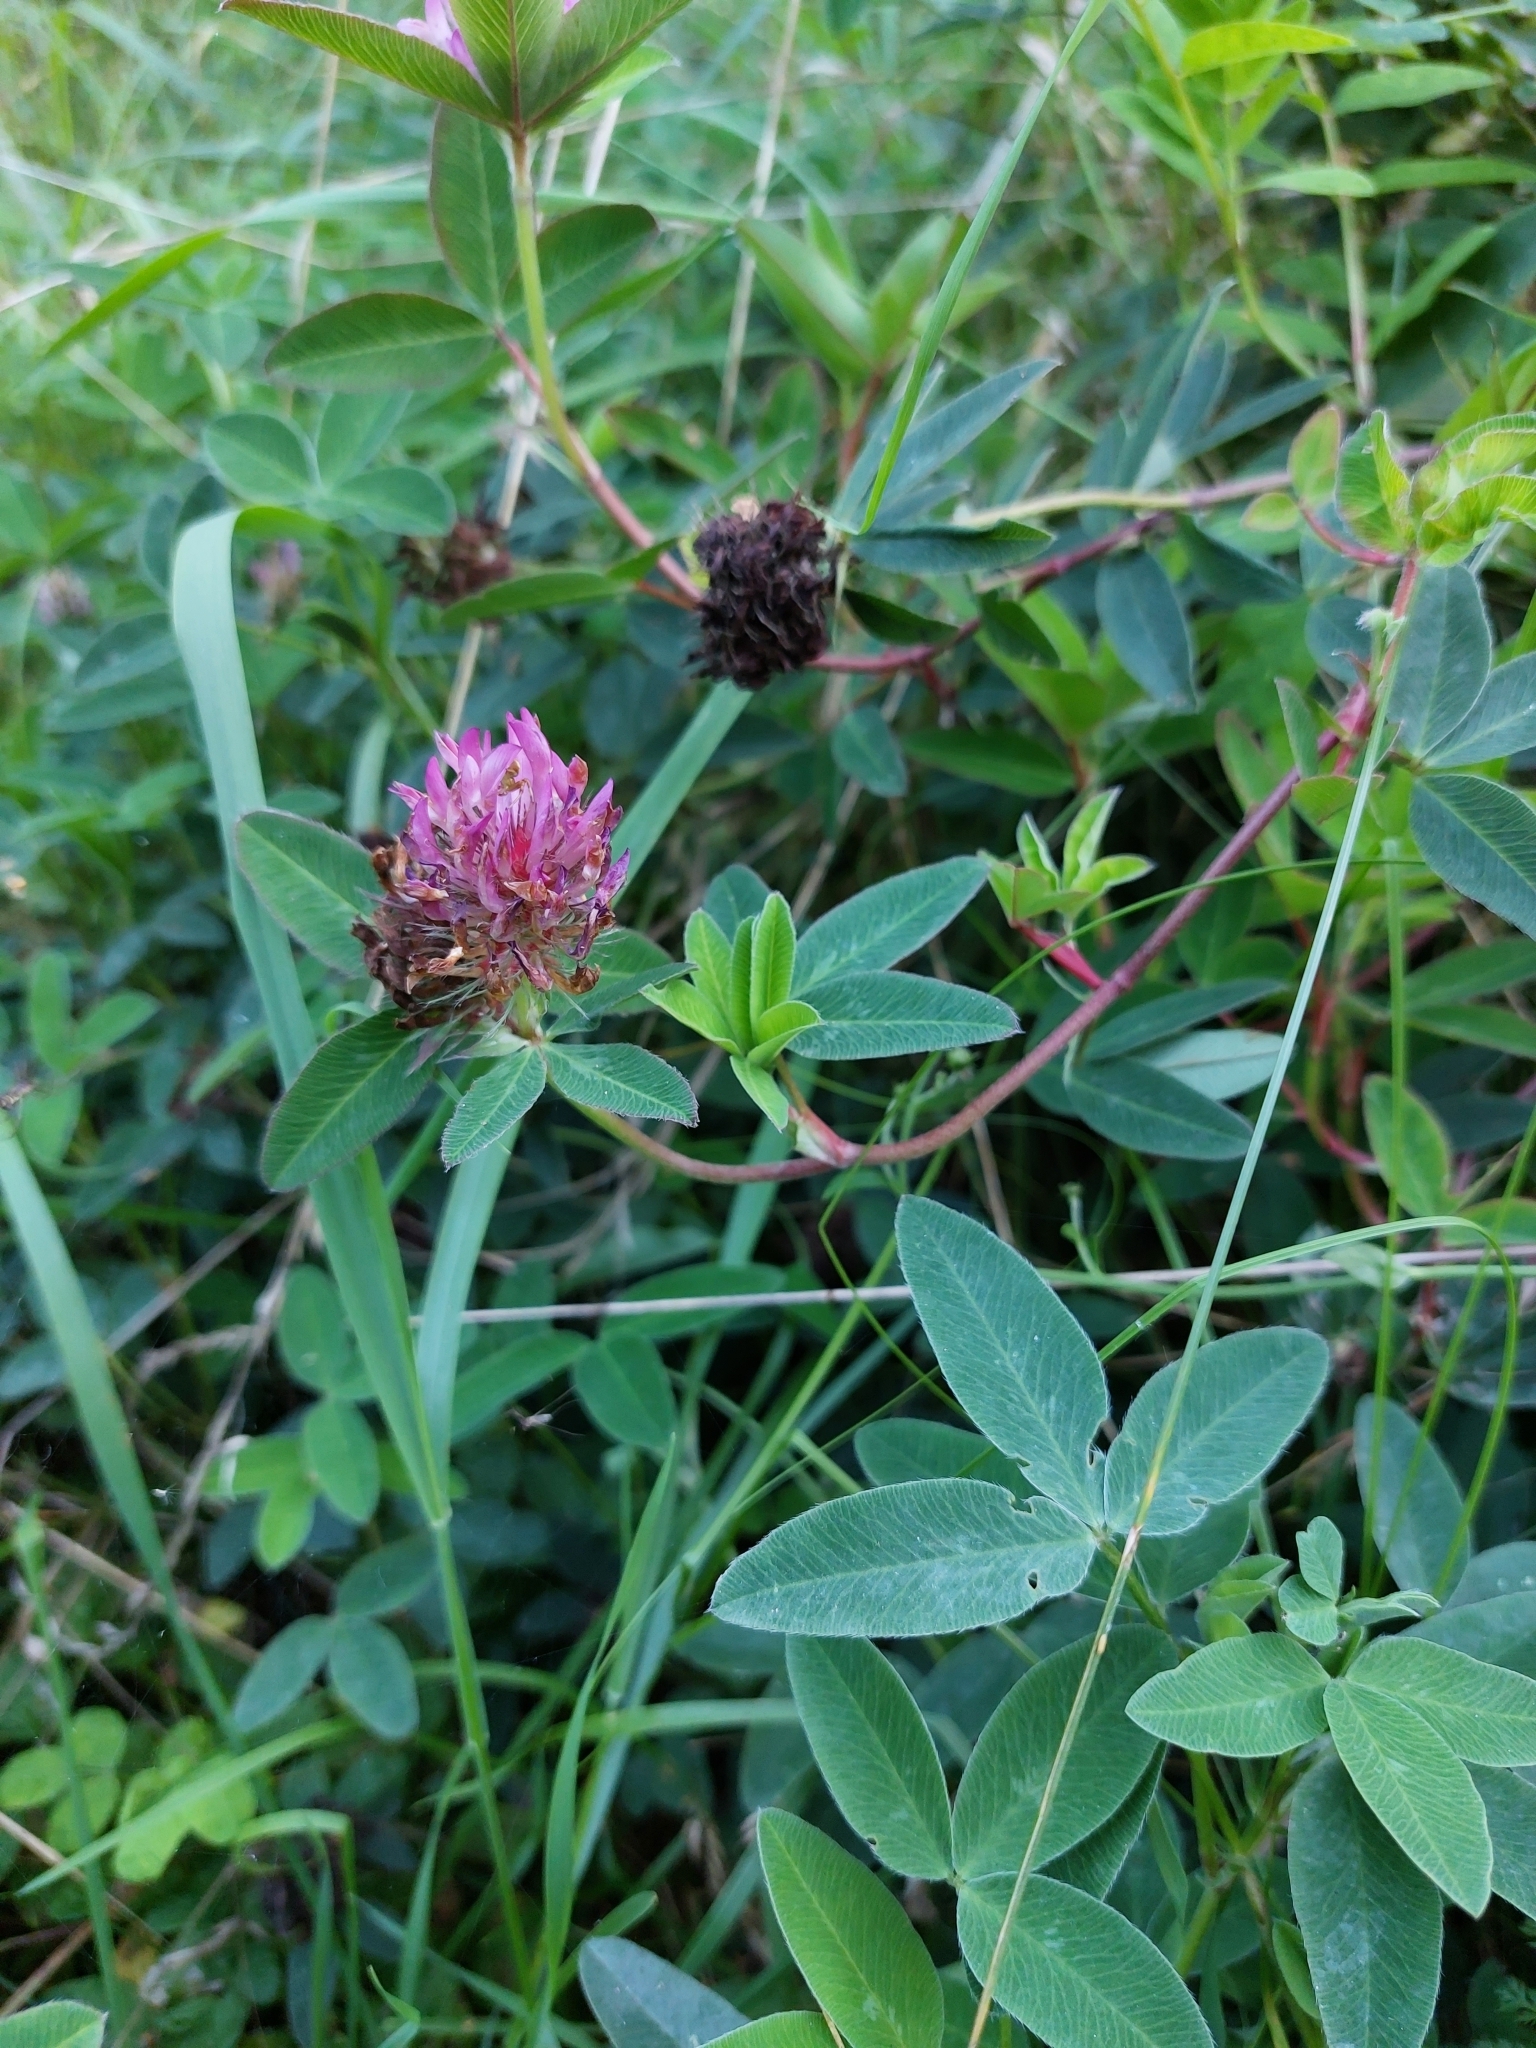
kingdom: Plantae
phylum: Tracheophyta
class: Magnoliopsida
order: Fabales
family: Fabaceae
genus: Trifolium
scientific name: Trifolium medium
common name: Zigzag clover
